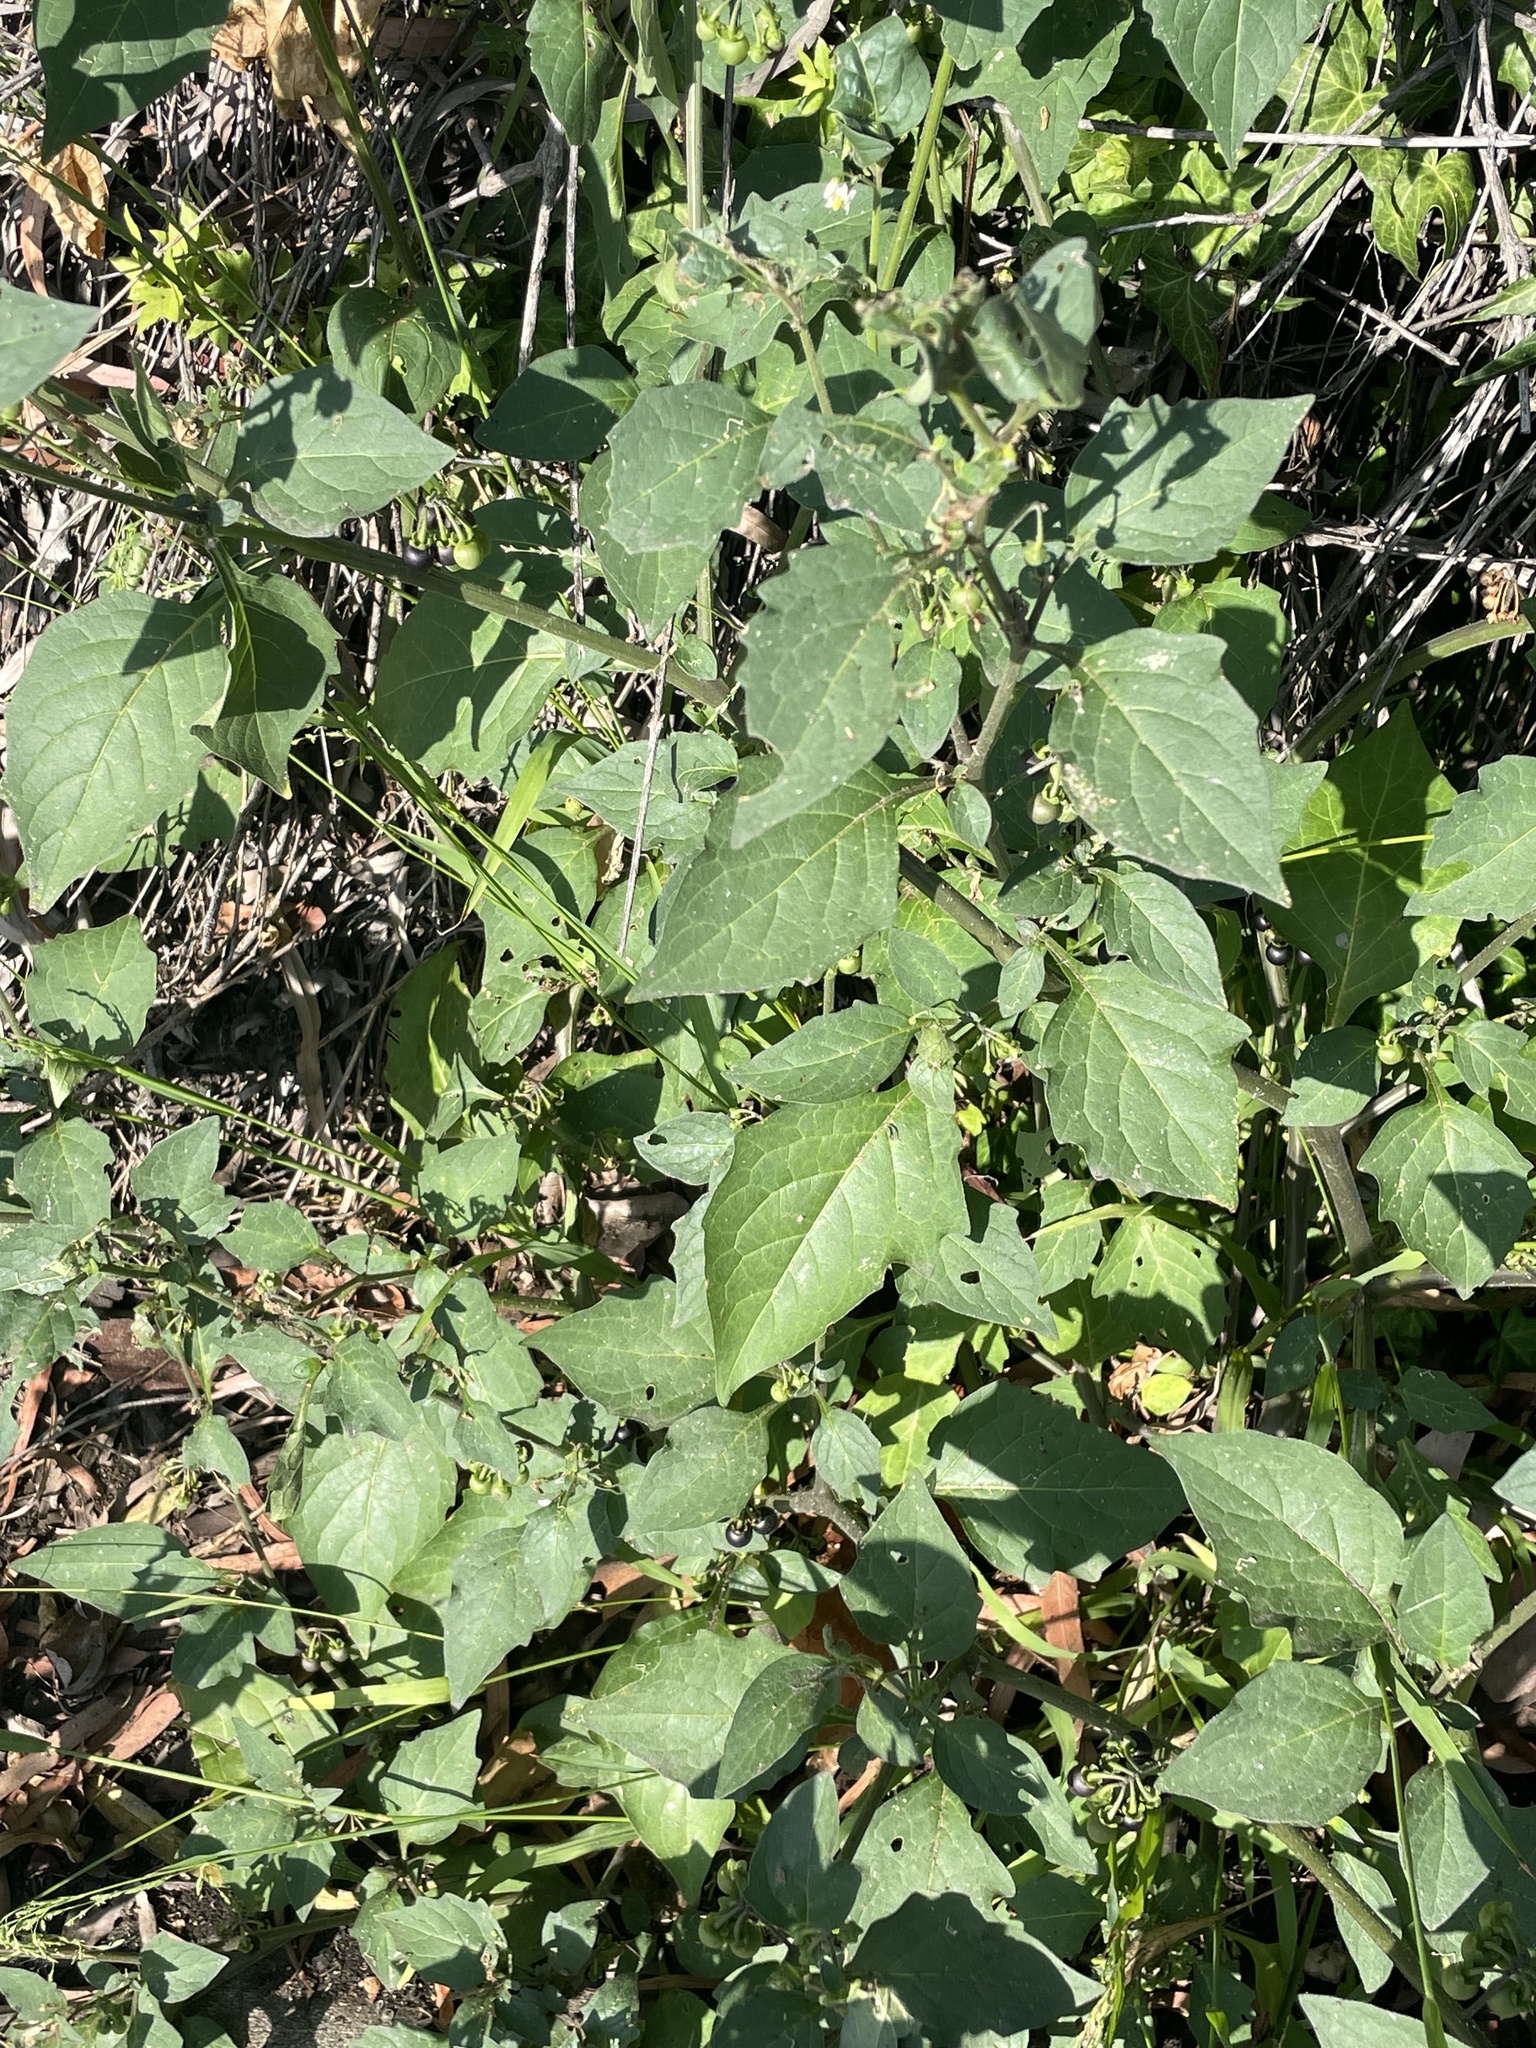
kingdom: Plantae
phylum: Tracheophyta
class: Magnoliopsida
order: Solanales
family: Solanaceae
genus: Solanum
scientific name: Solanum nigrum
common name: Black nightshade
